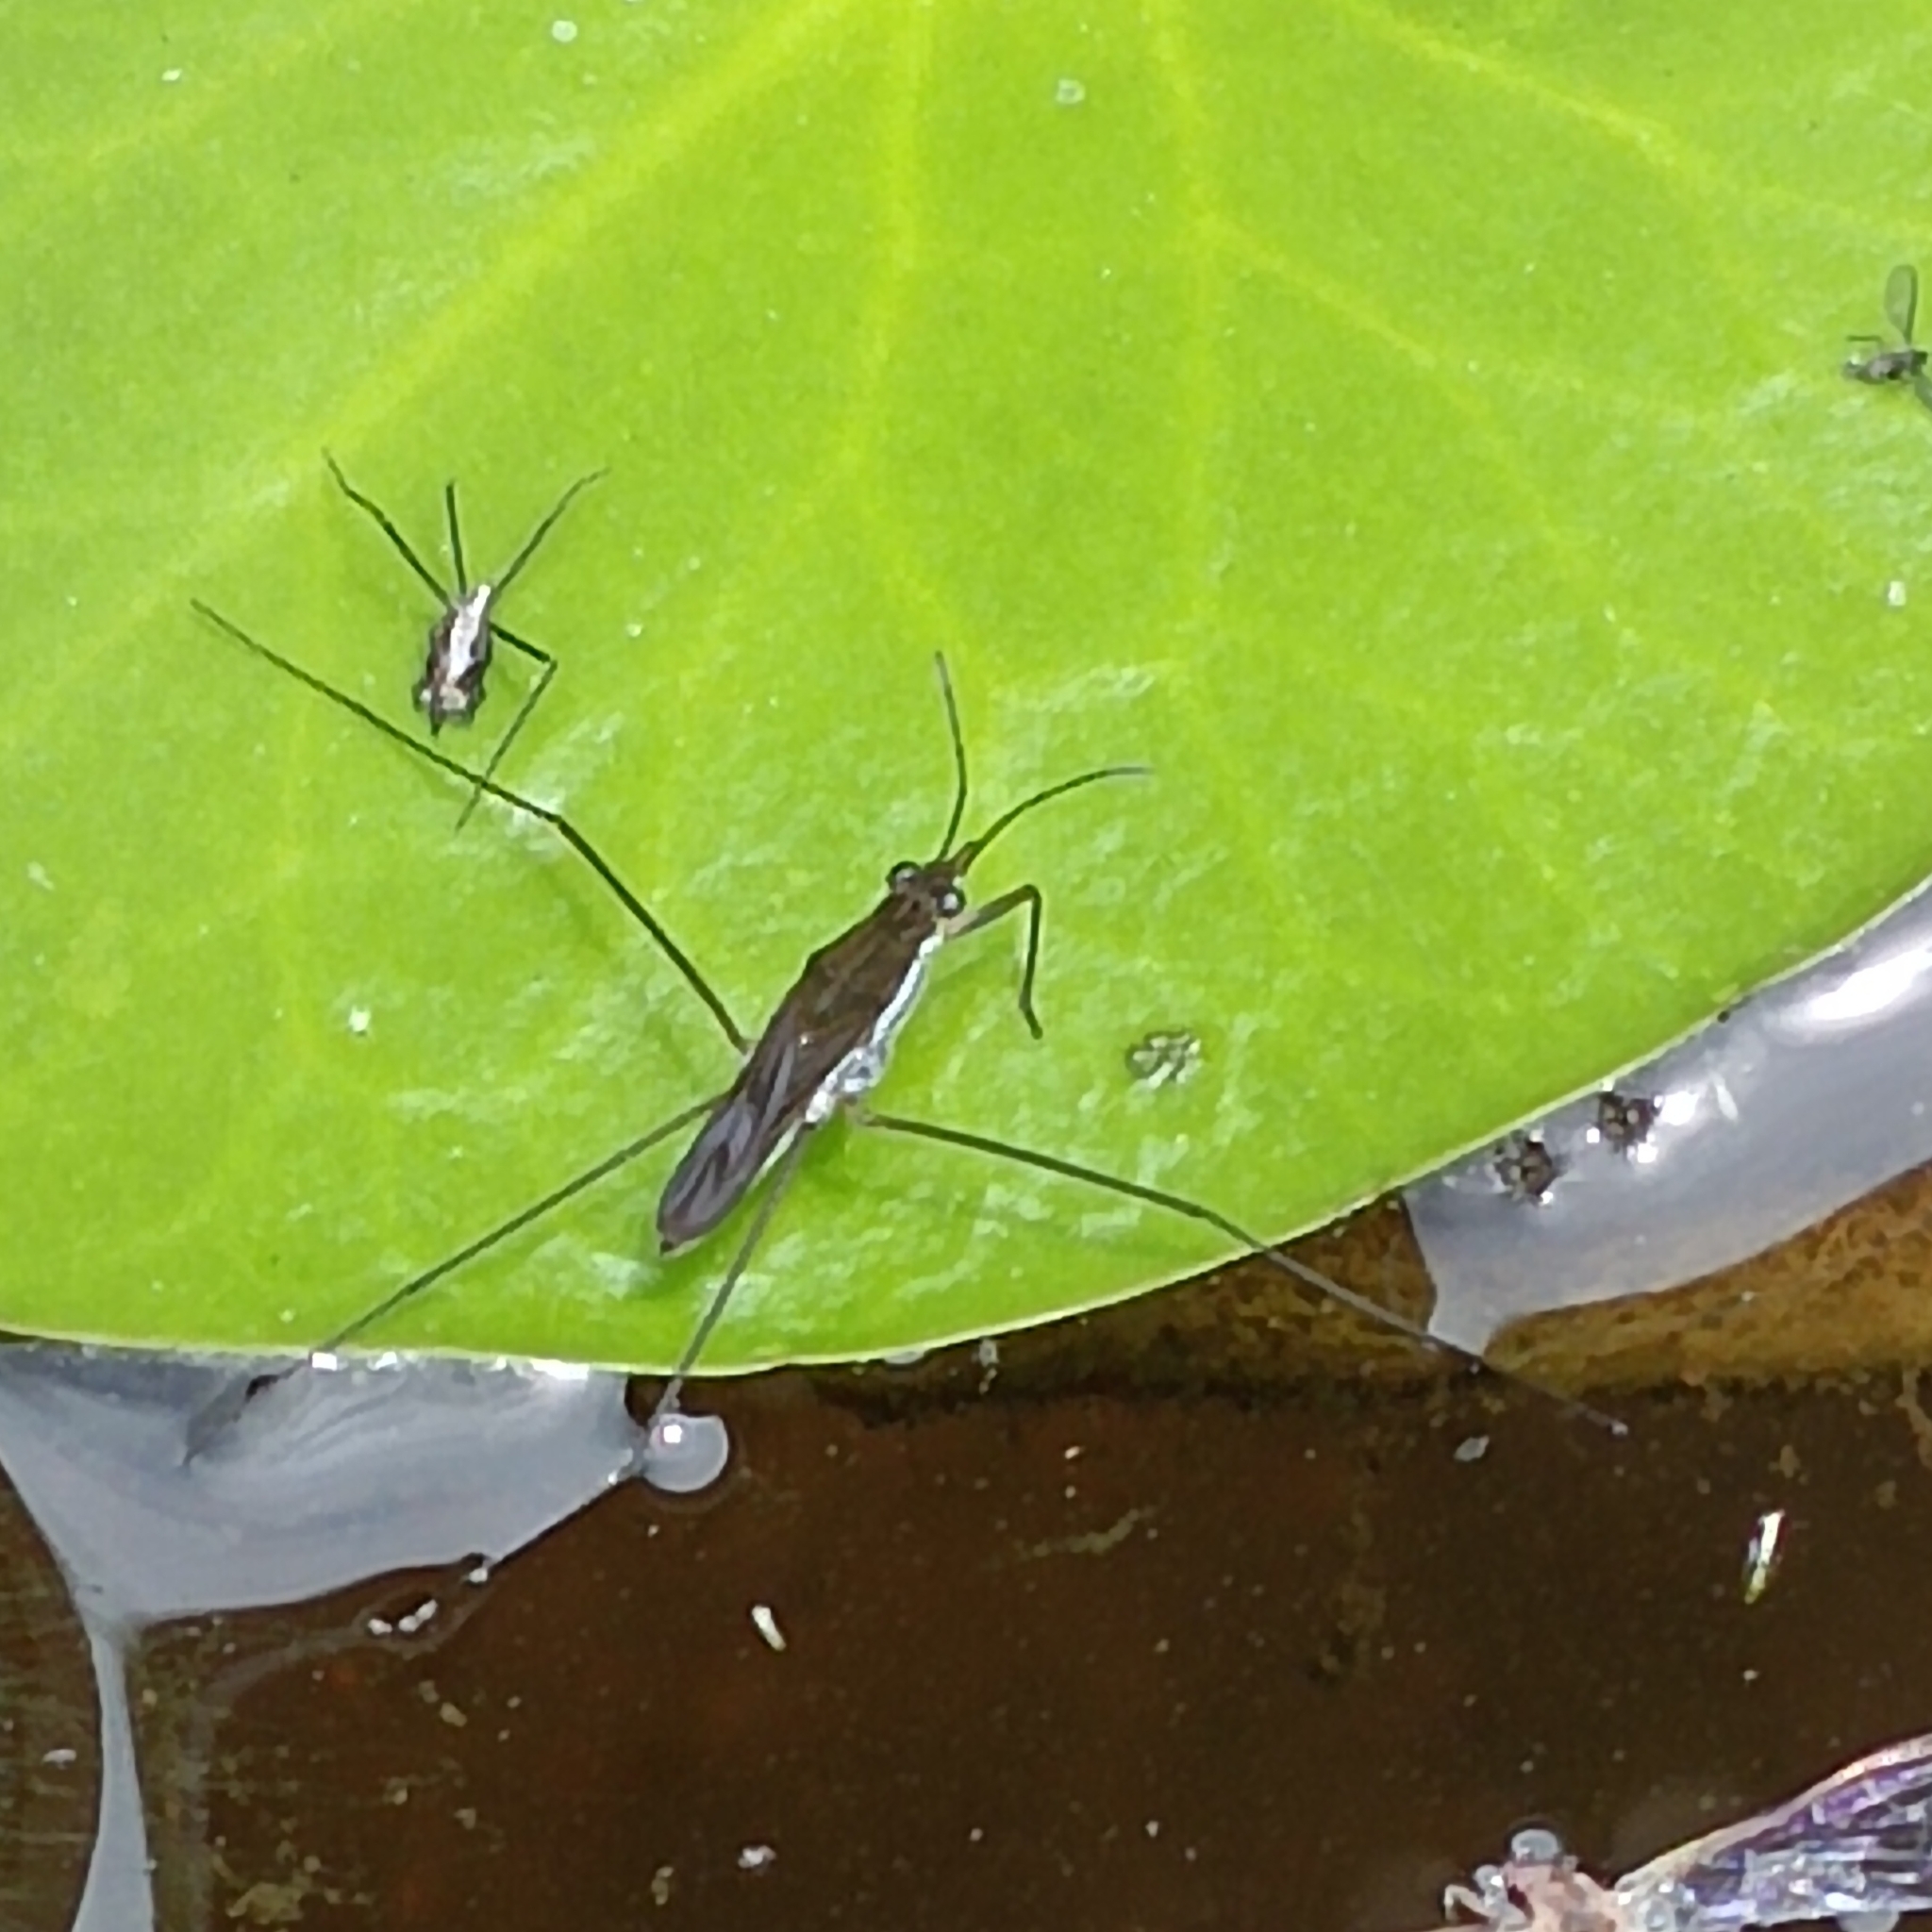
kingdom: Animalia
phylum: Arthropoda
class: Insecta
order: Hemiptera
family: Gerridae
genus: Gerris
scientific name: Gerris swakopensis
